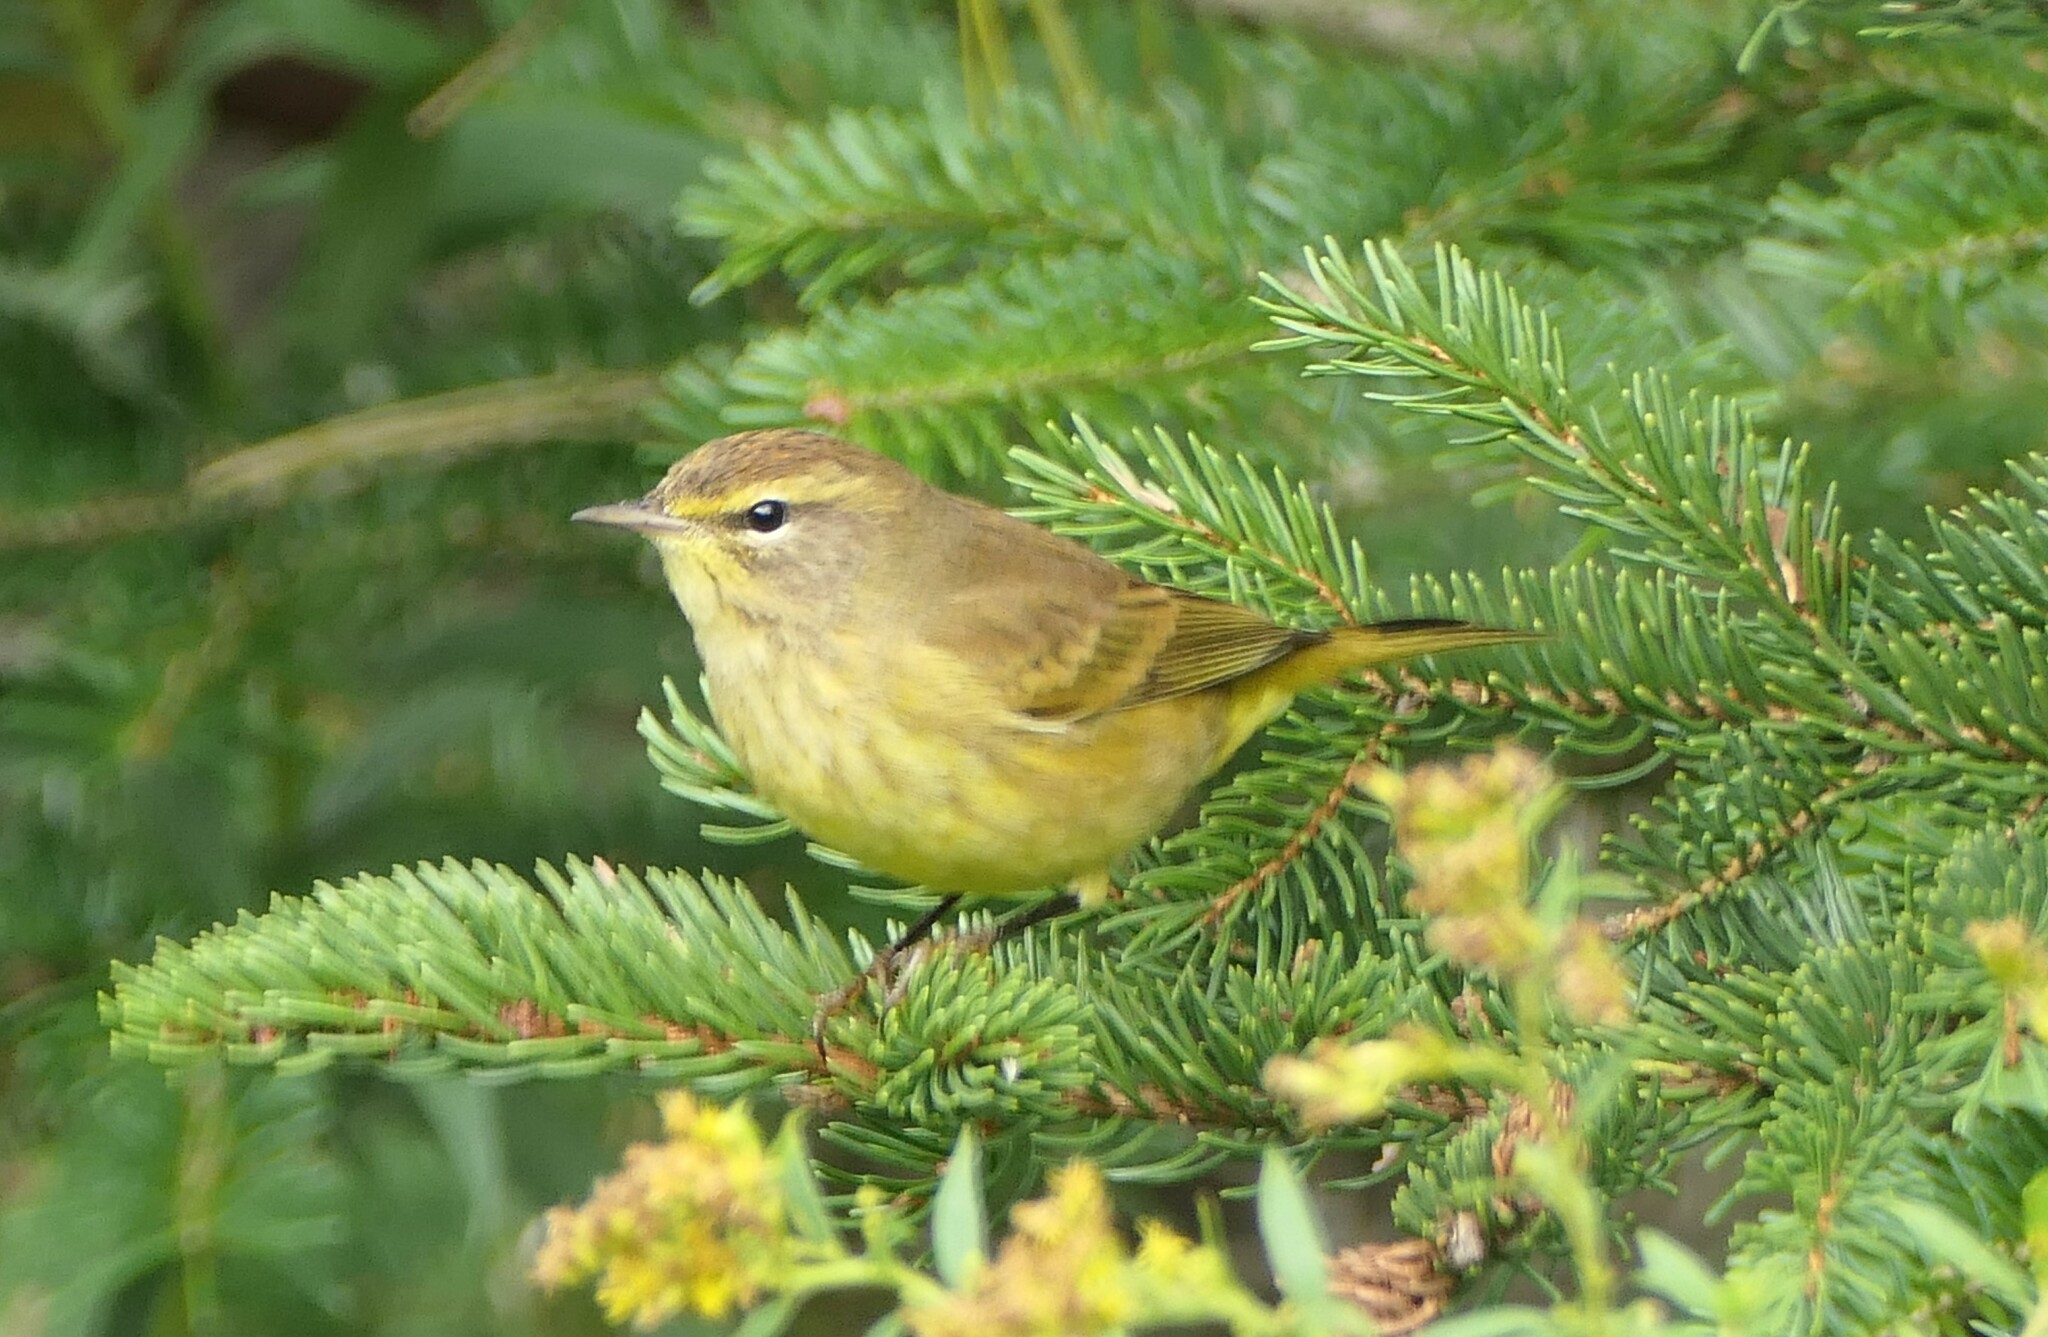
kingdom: Animalia
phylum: Chordata
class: Aves
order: Passeriformes
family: Parulidae
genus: Setophaga
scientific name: Setophaga palmarum
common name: Palm warbler
